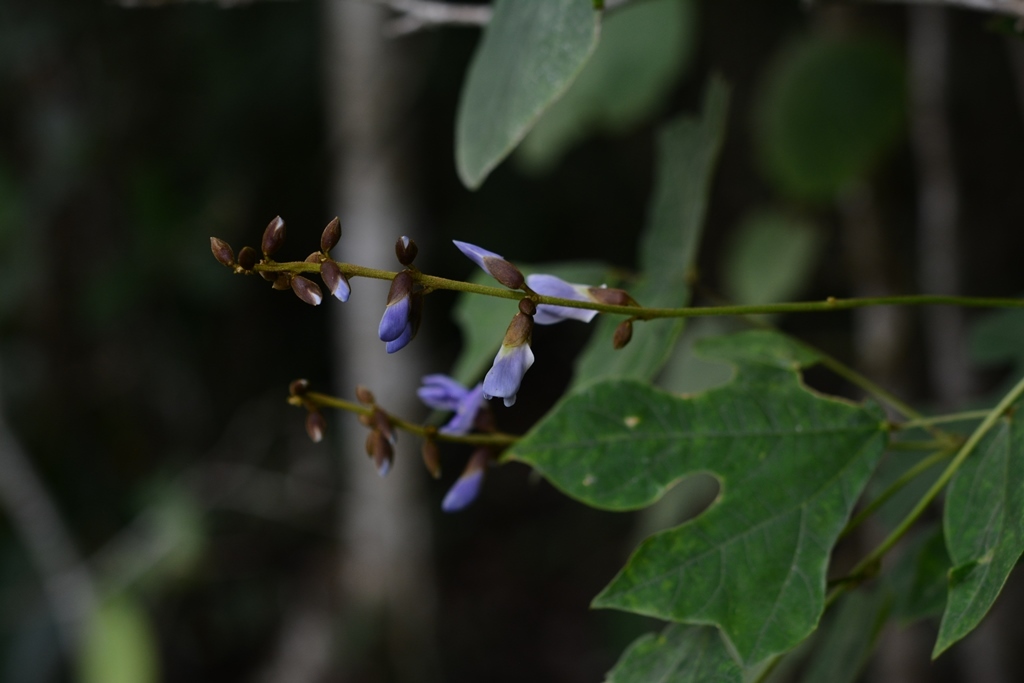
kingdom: Plantae
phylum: Tracheophyta
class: Magnoliopsida
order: Fabales
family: Fabaceae
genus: Pachyrhizus
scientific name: Pachyrhizus erosus
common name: Yam bean
